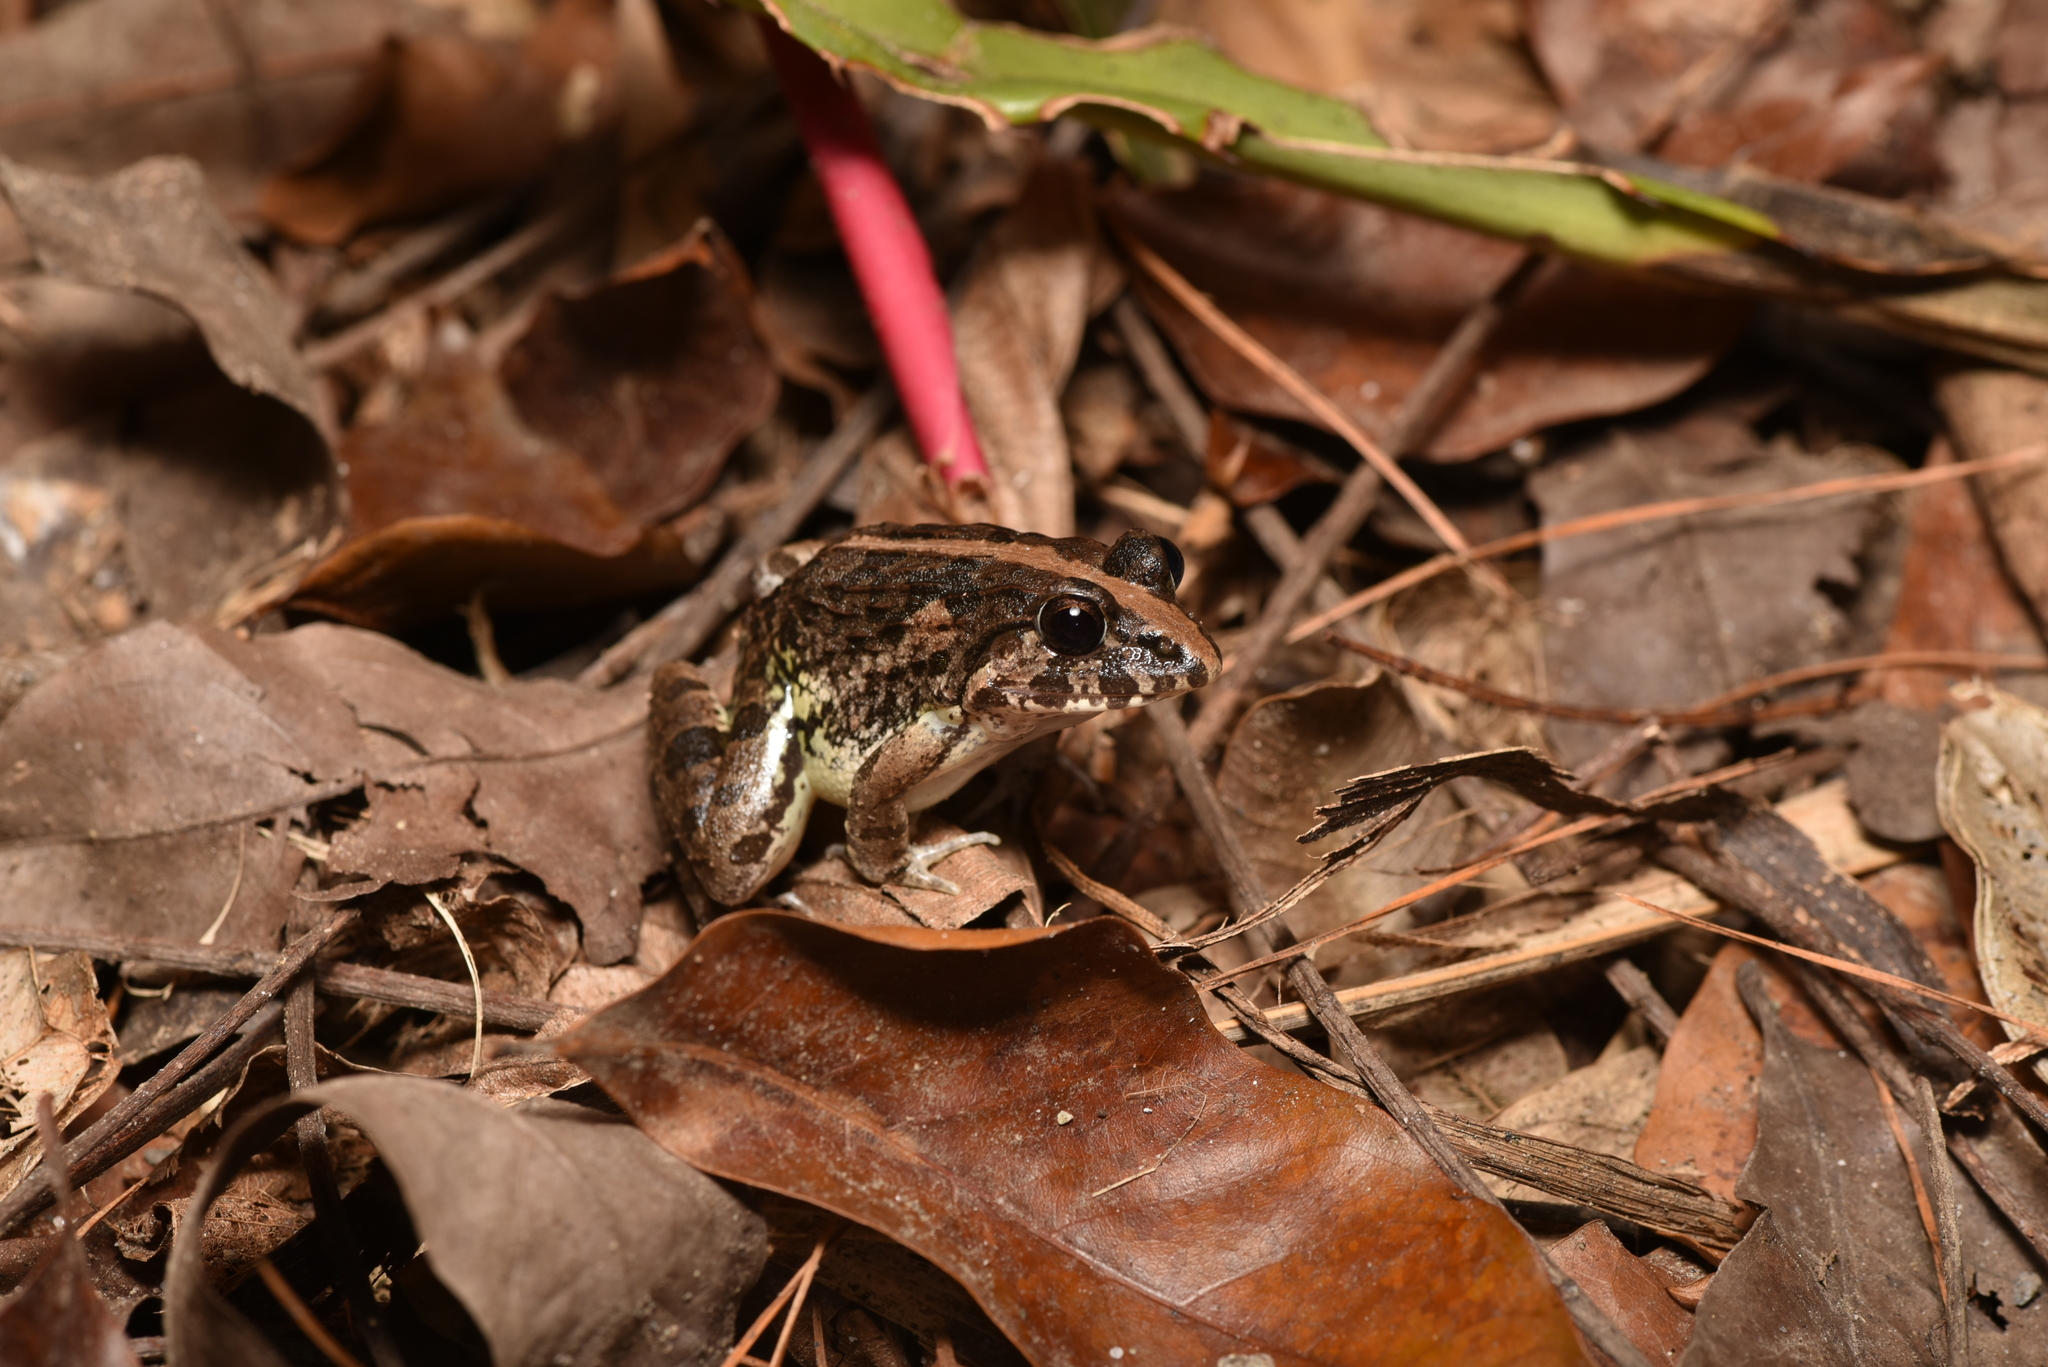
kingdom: Animalia
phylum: Chordata
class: Amphibia
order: Anura
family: Dicroglossidae
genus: Fejervarya
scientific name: Fejervarya limnocharis
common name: Asian grass frog/common pond frog/field frog/grass frog/indian rice frog
